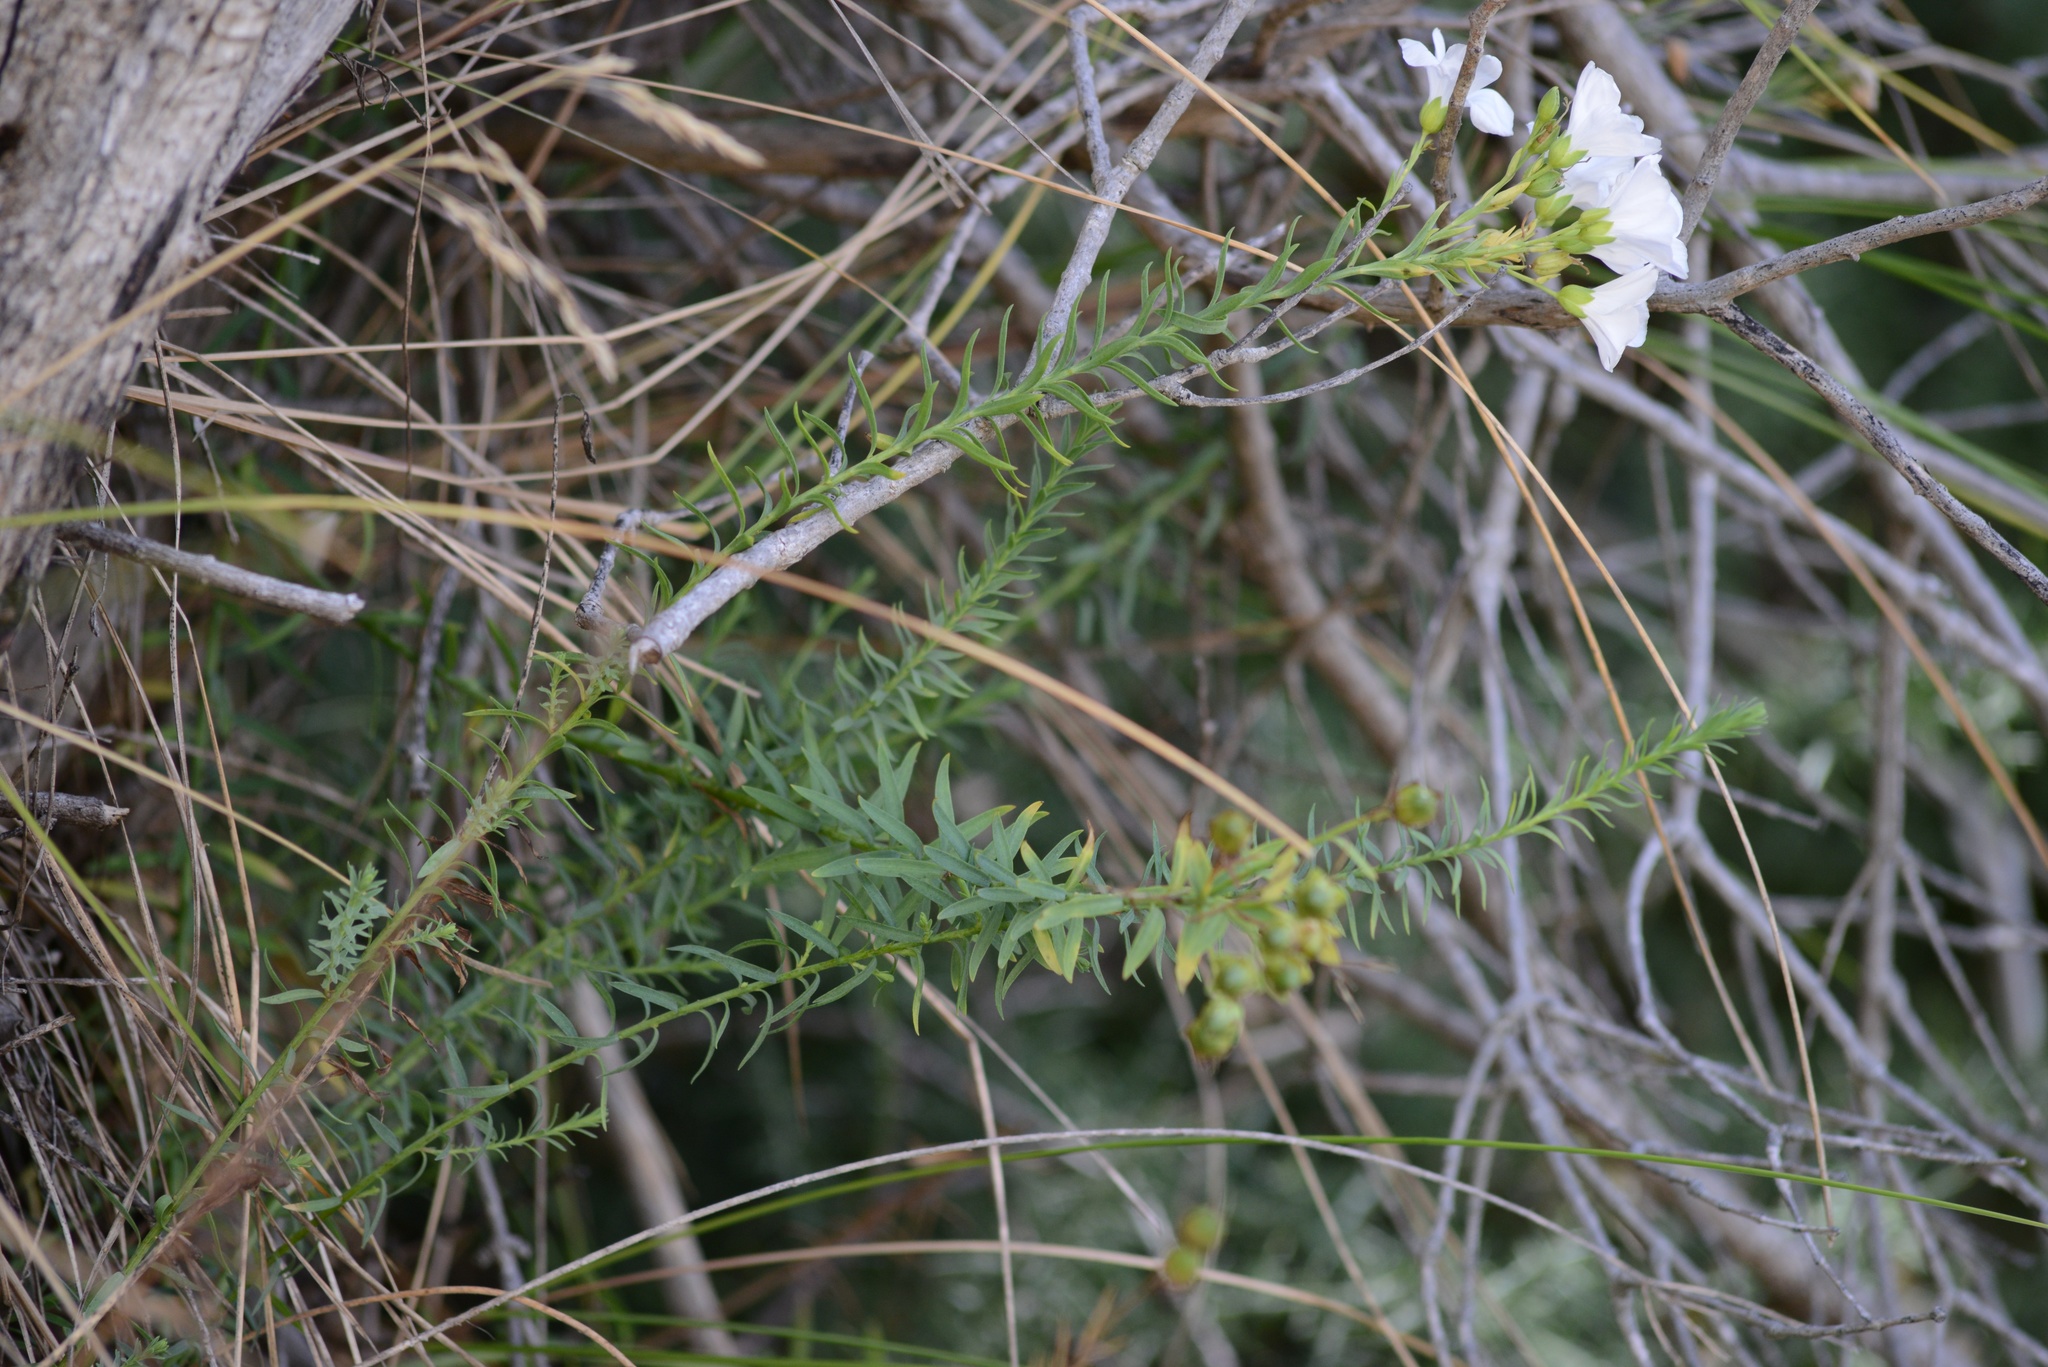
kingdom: Plantae
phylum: Tracheophyta
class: Magnoliopsida
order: Malpighiales
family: Linaceae
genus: Linum
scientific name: Linum monogynum
